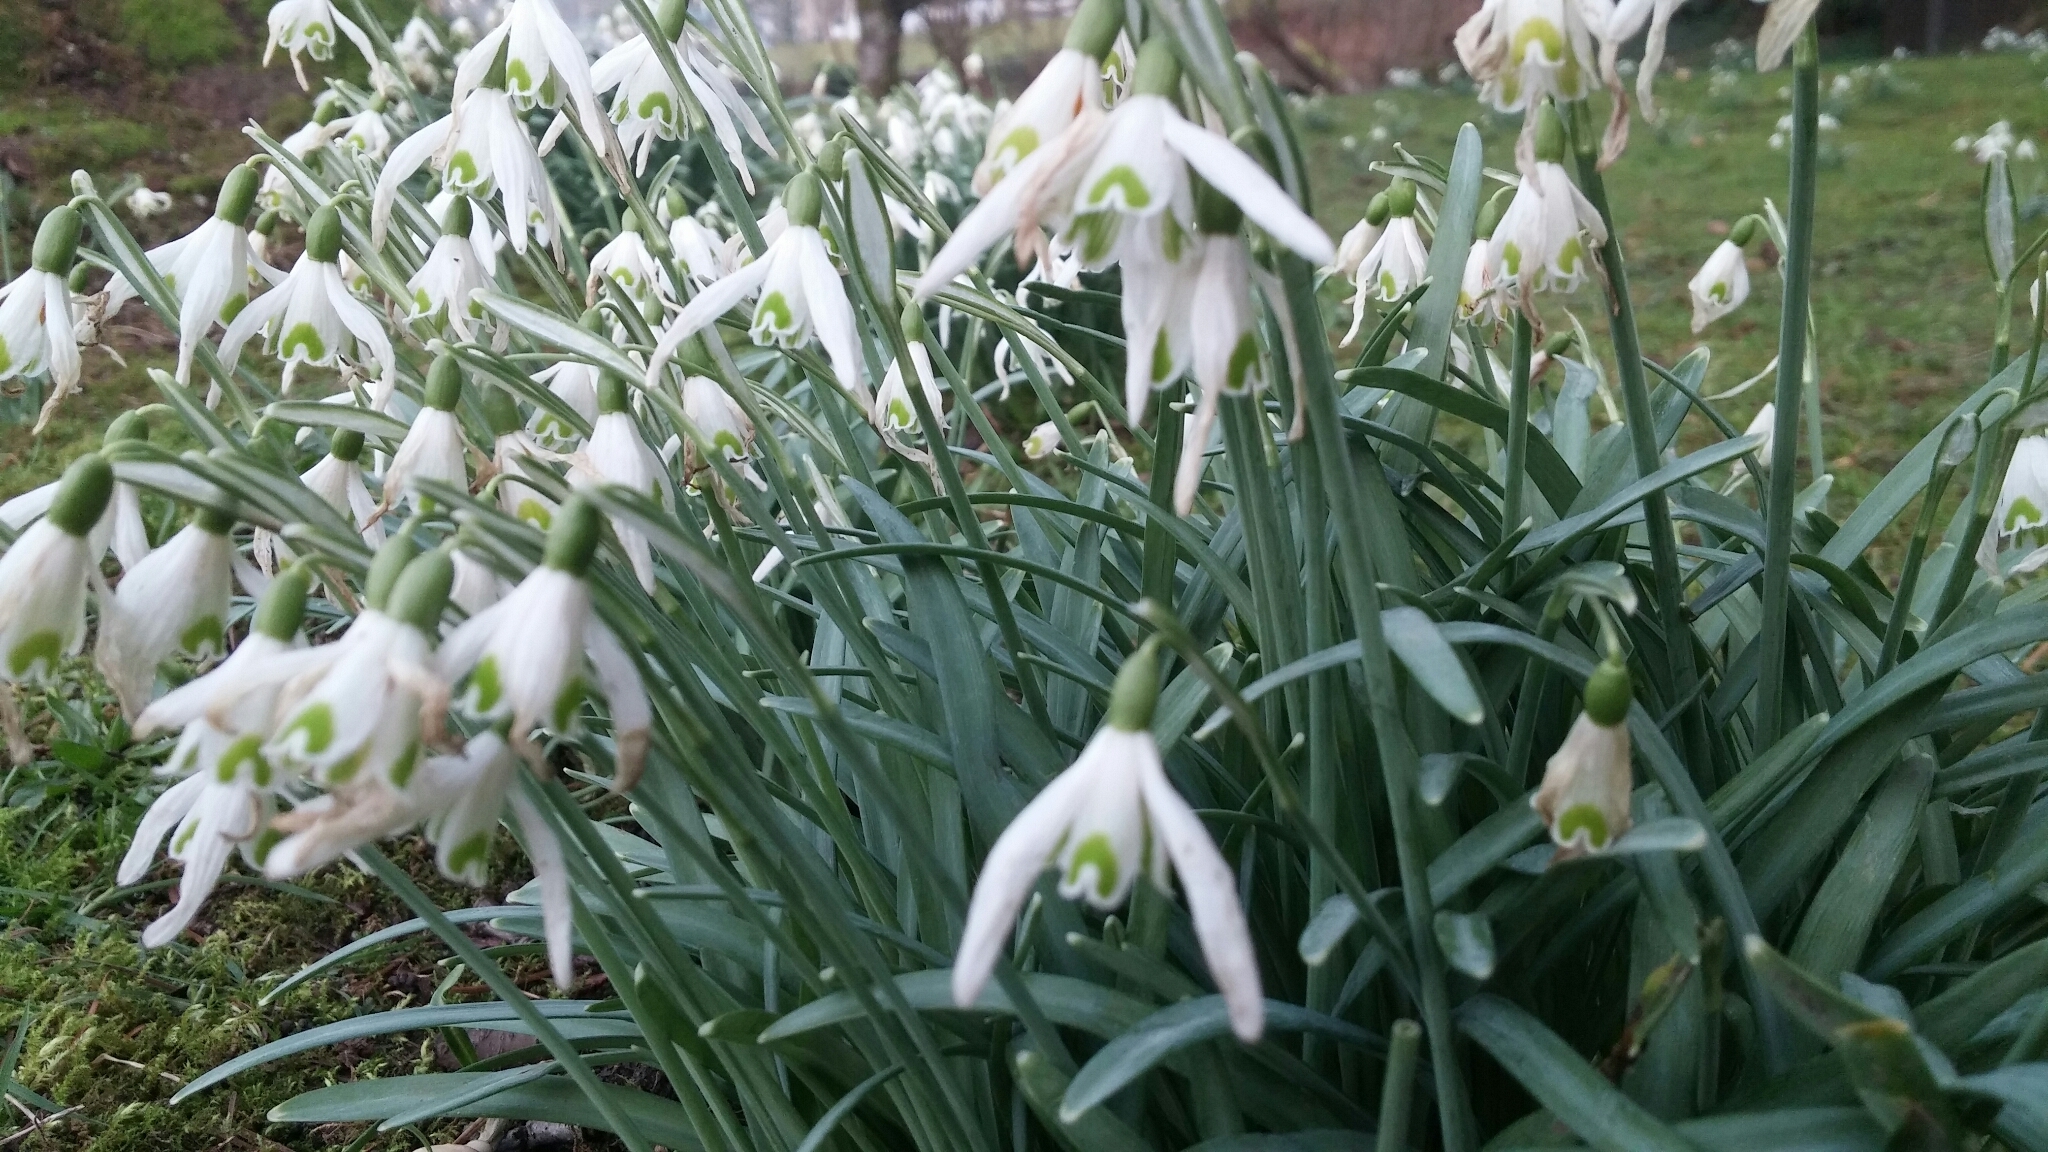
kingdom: Plantae
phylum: Tracheophyta
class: Liliopsida
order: Asparagales
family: Amaryllidaceae
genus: Galanthus
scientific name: Galanthus nivalis
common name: Snowdrop
